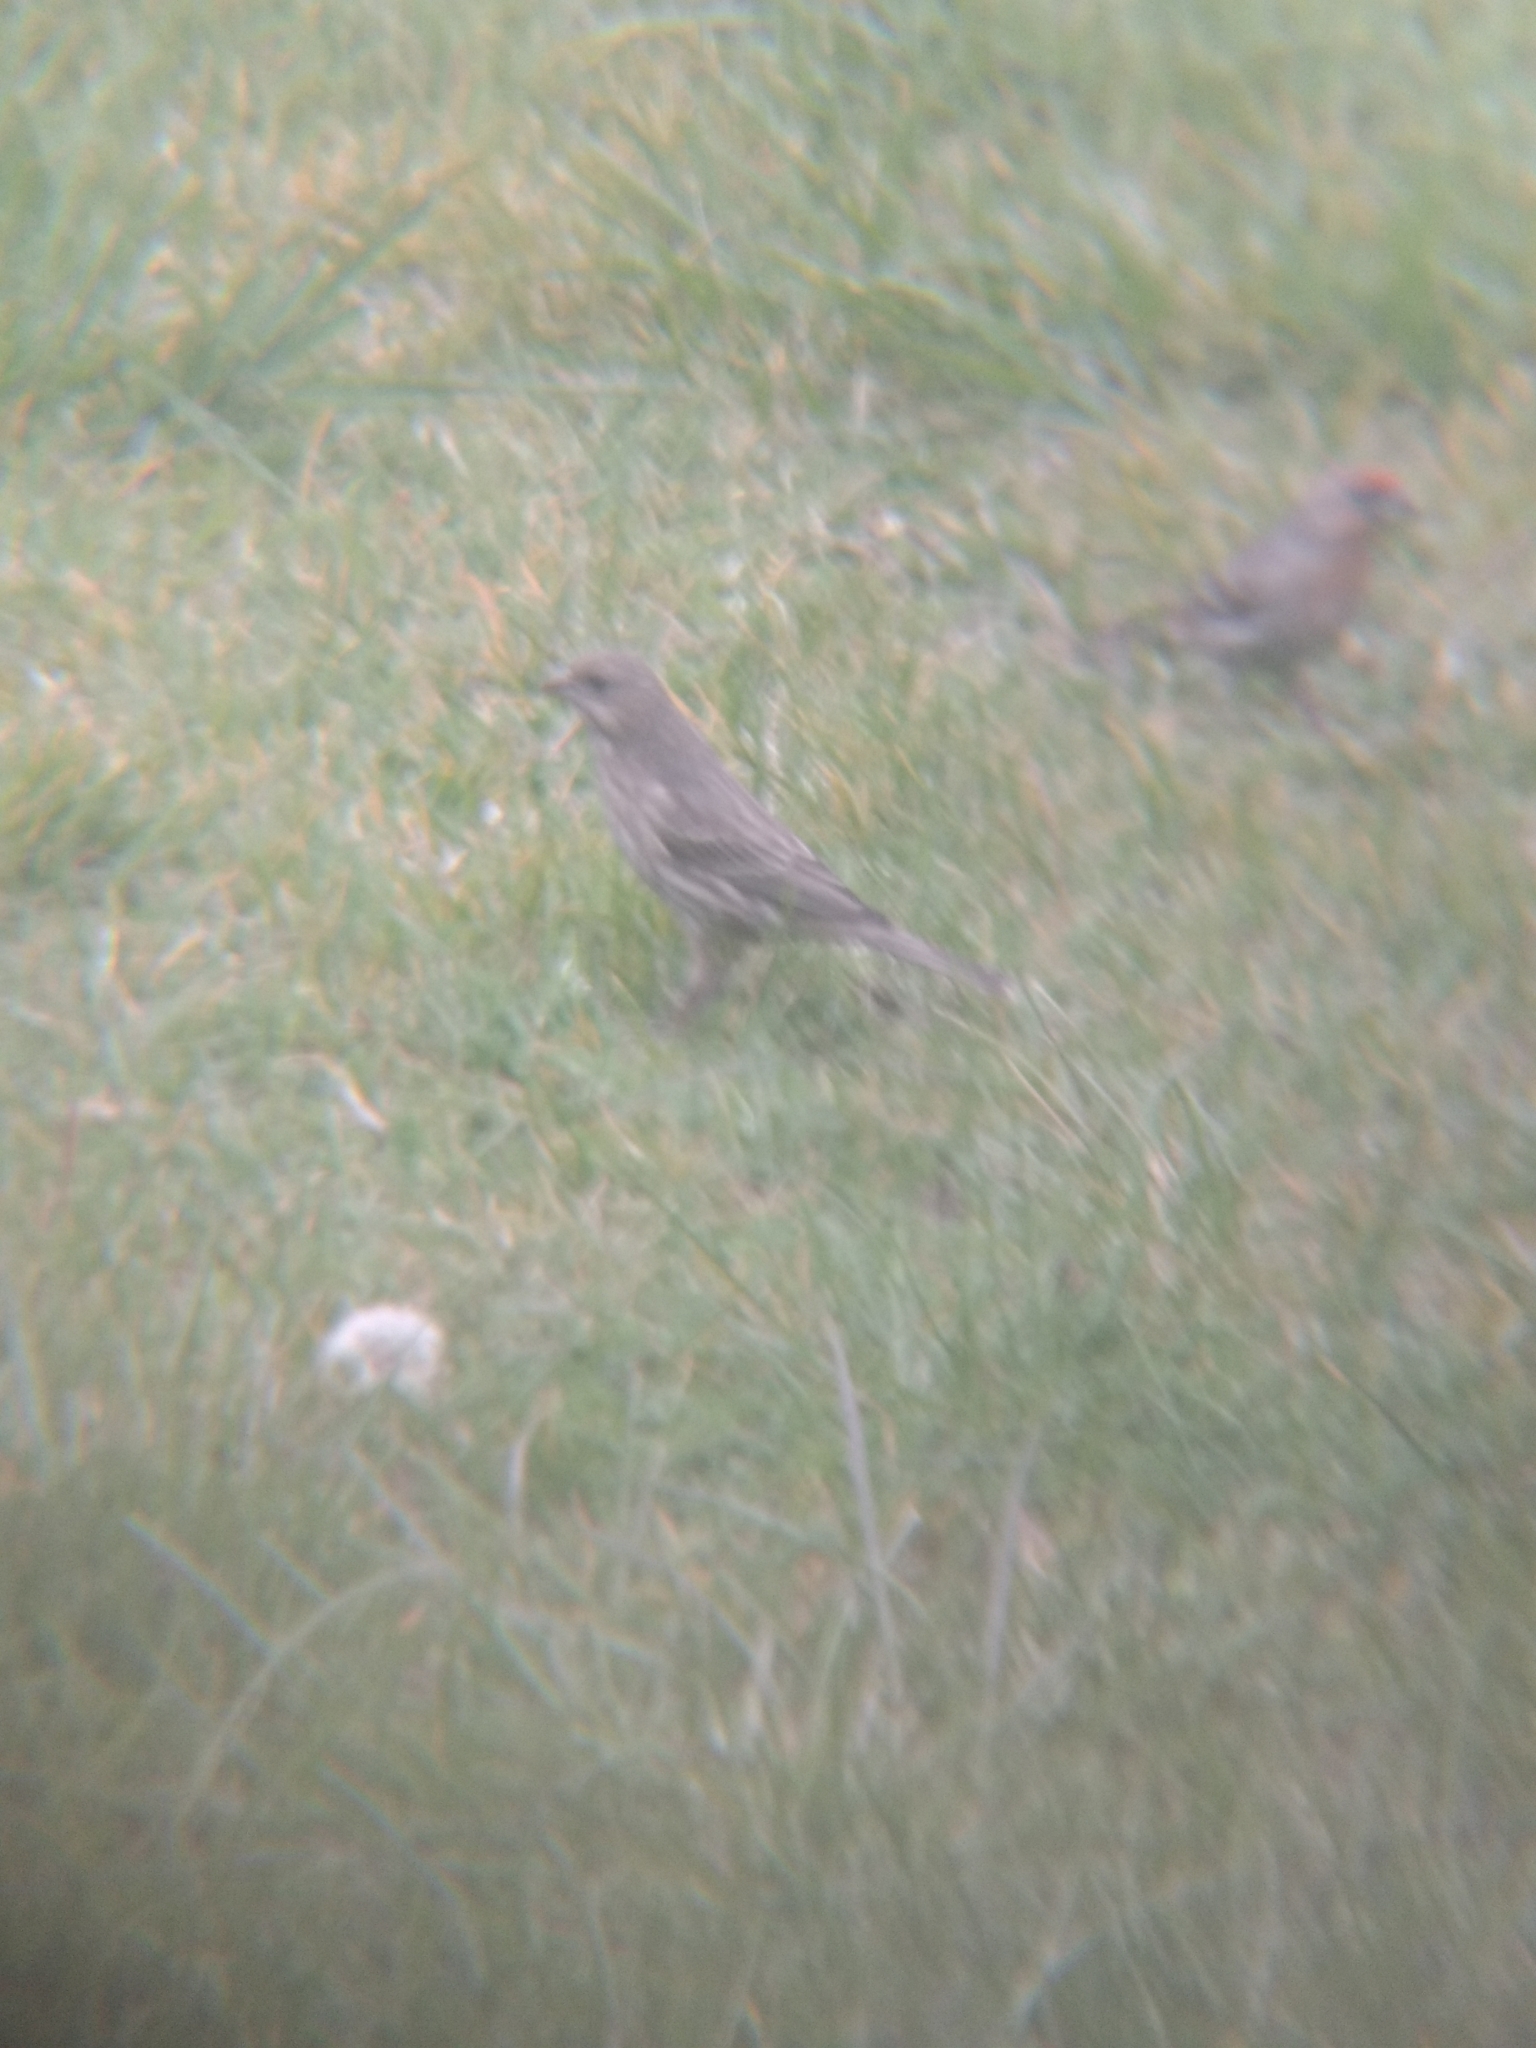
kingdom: Animalia
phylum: Chordata
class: Aves
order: Passeriformes
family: Fringillidae
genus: Haemorhous
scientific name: Haemorhous mexicanus
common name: House finch
